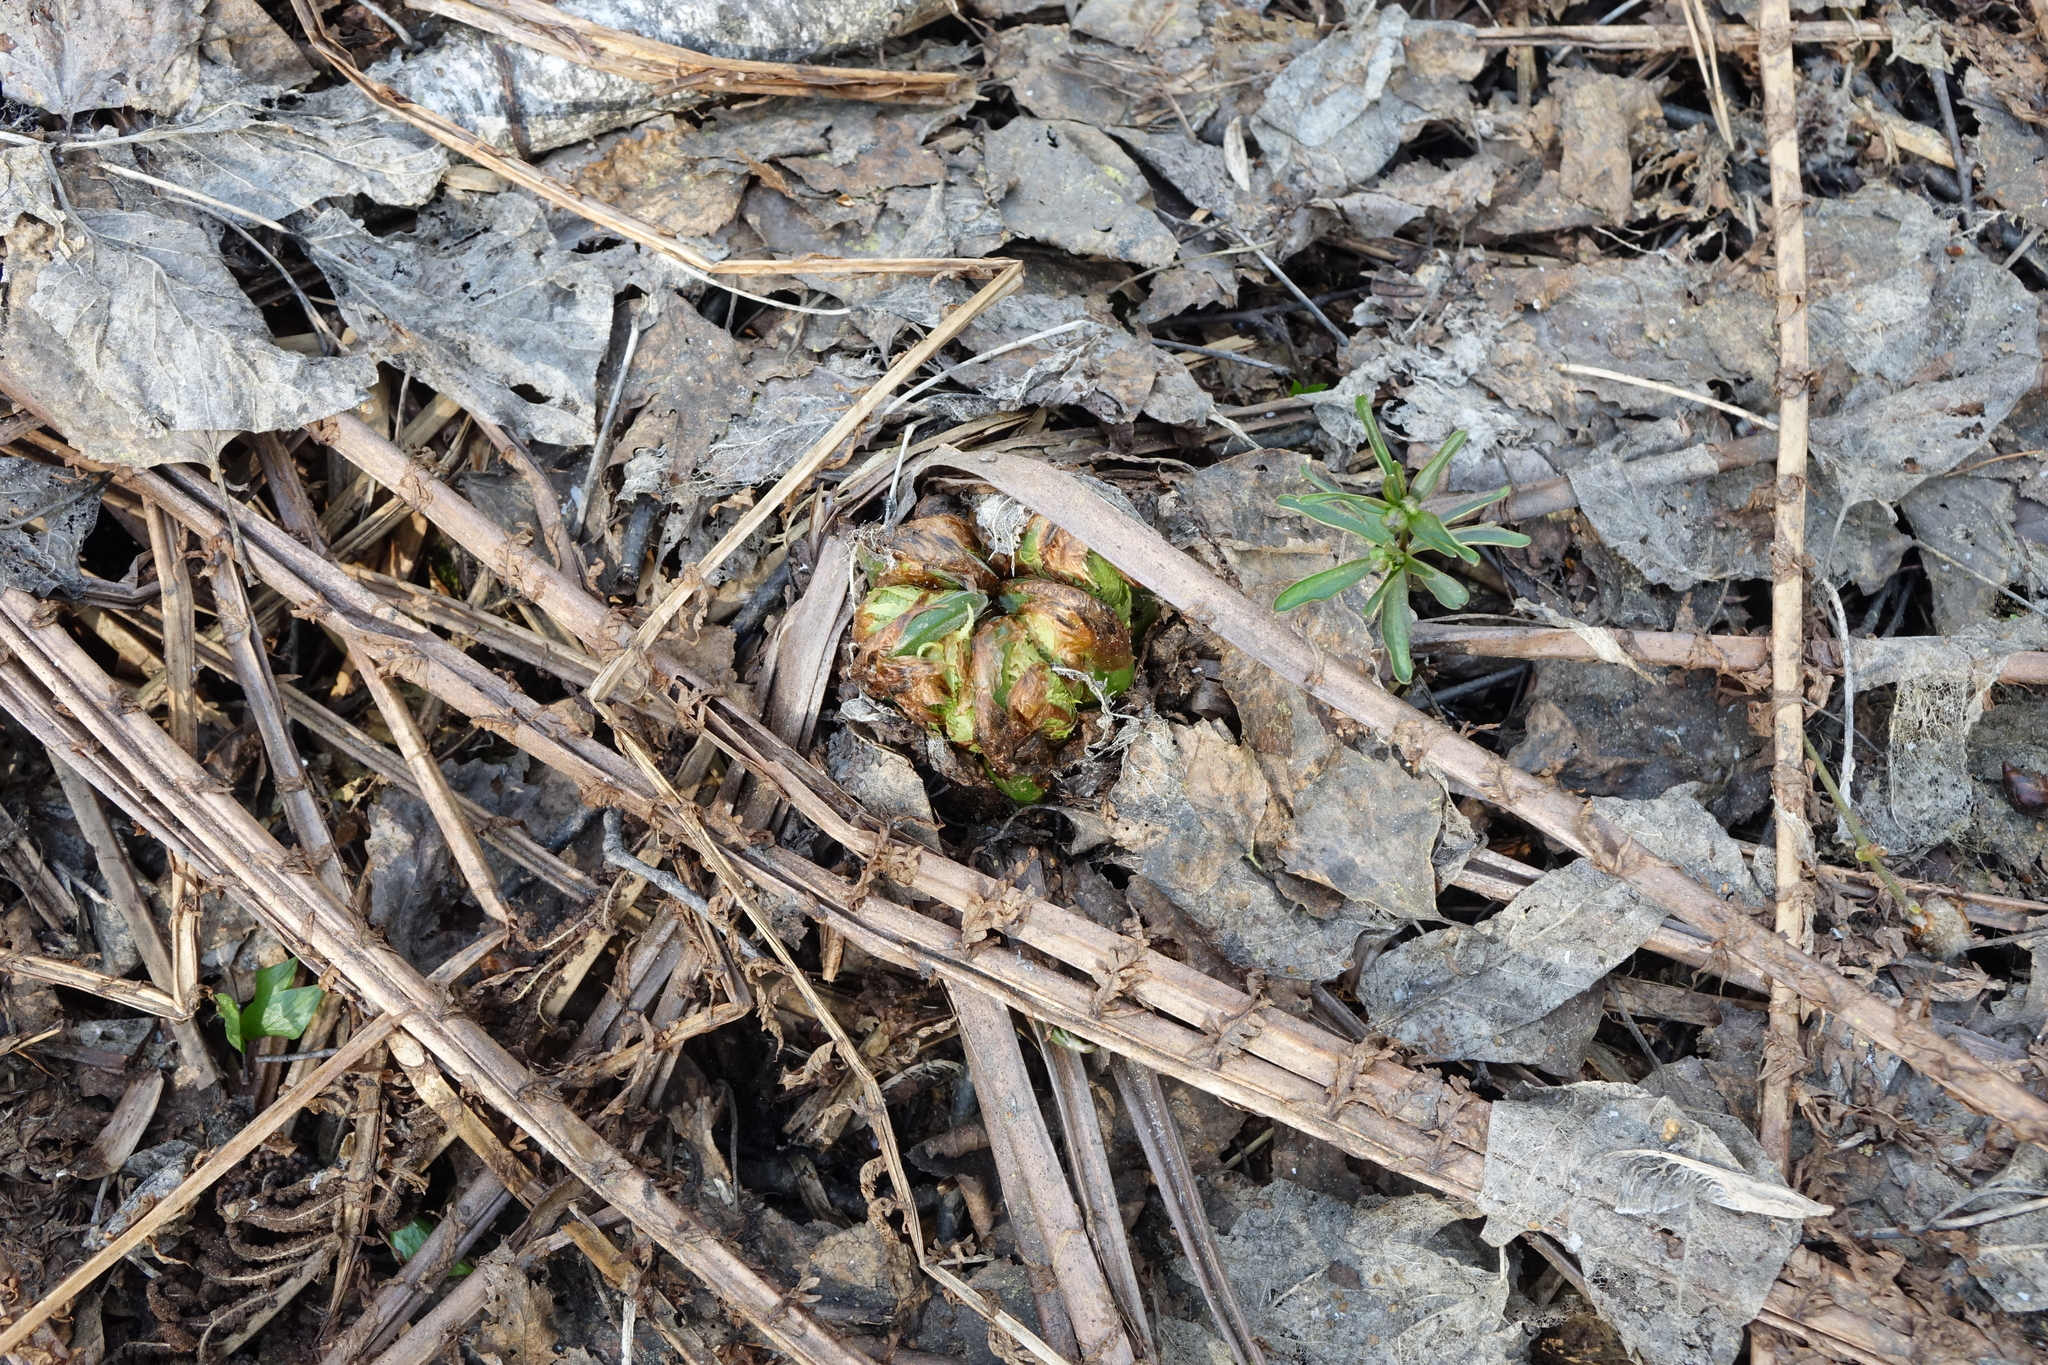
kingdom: Plantae
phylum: Tracheophyta
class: Polypodiopsida
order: Polypodiales
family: Onocleaceae
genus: Matteuccia
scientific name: Matteuccia struthiopteris
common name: Ostrich fern
